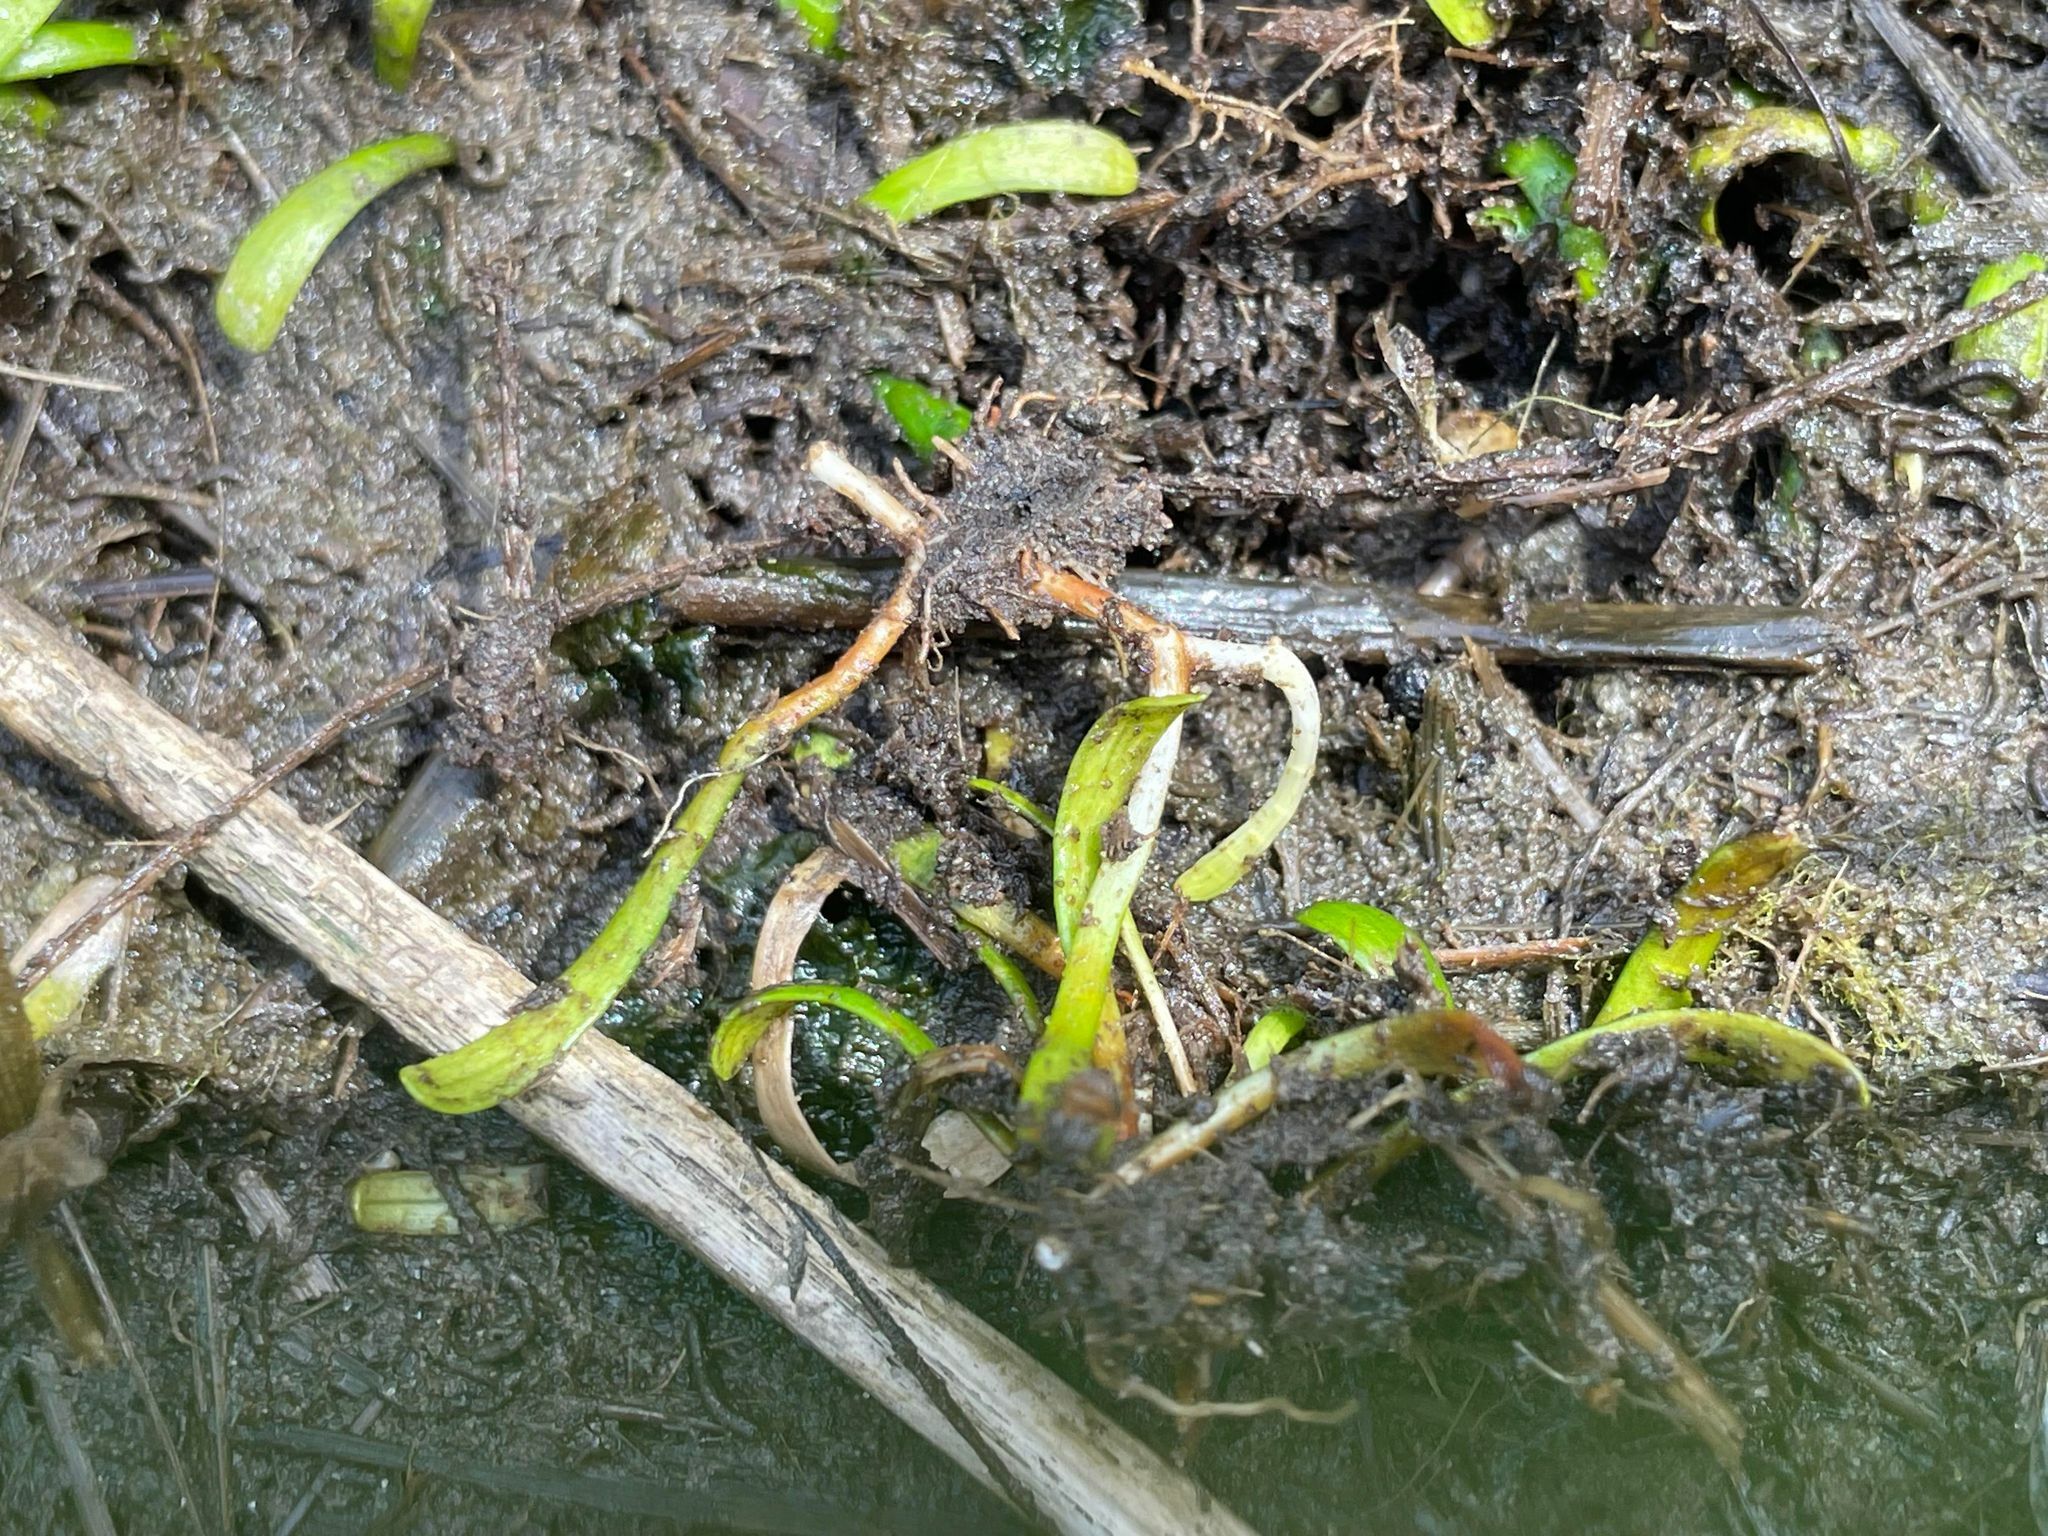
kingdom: Plantae
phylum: Tracheophyta
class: Magnoliopsida
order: Apiales
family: Apiaceae
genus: Lilaeopsis
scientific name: Lilaeopsis chinensis
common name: Eastern grasswort
